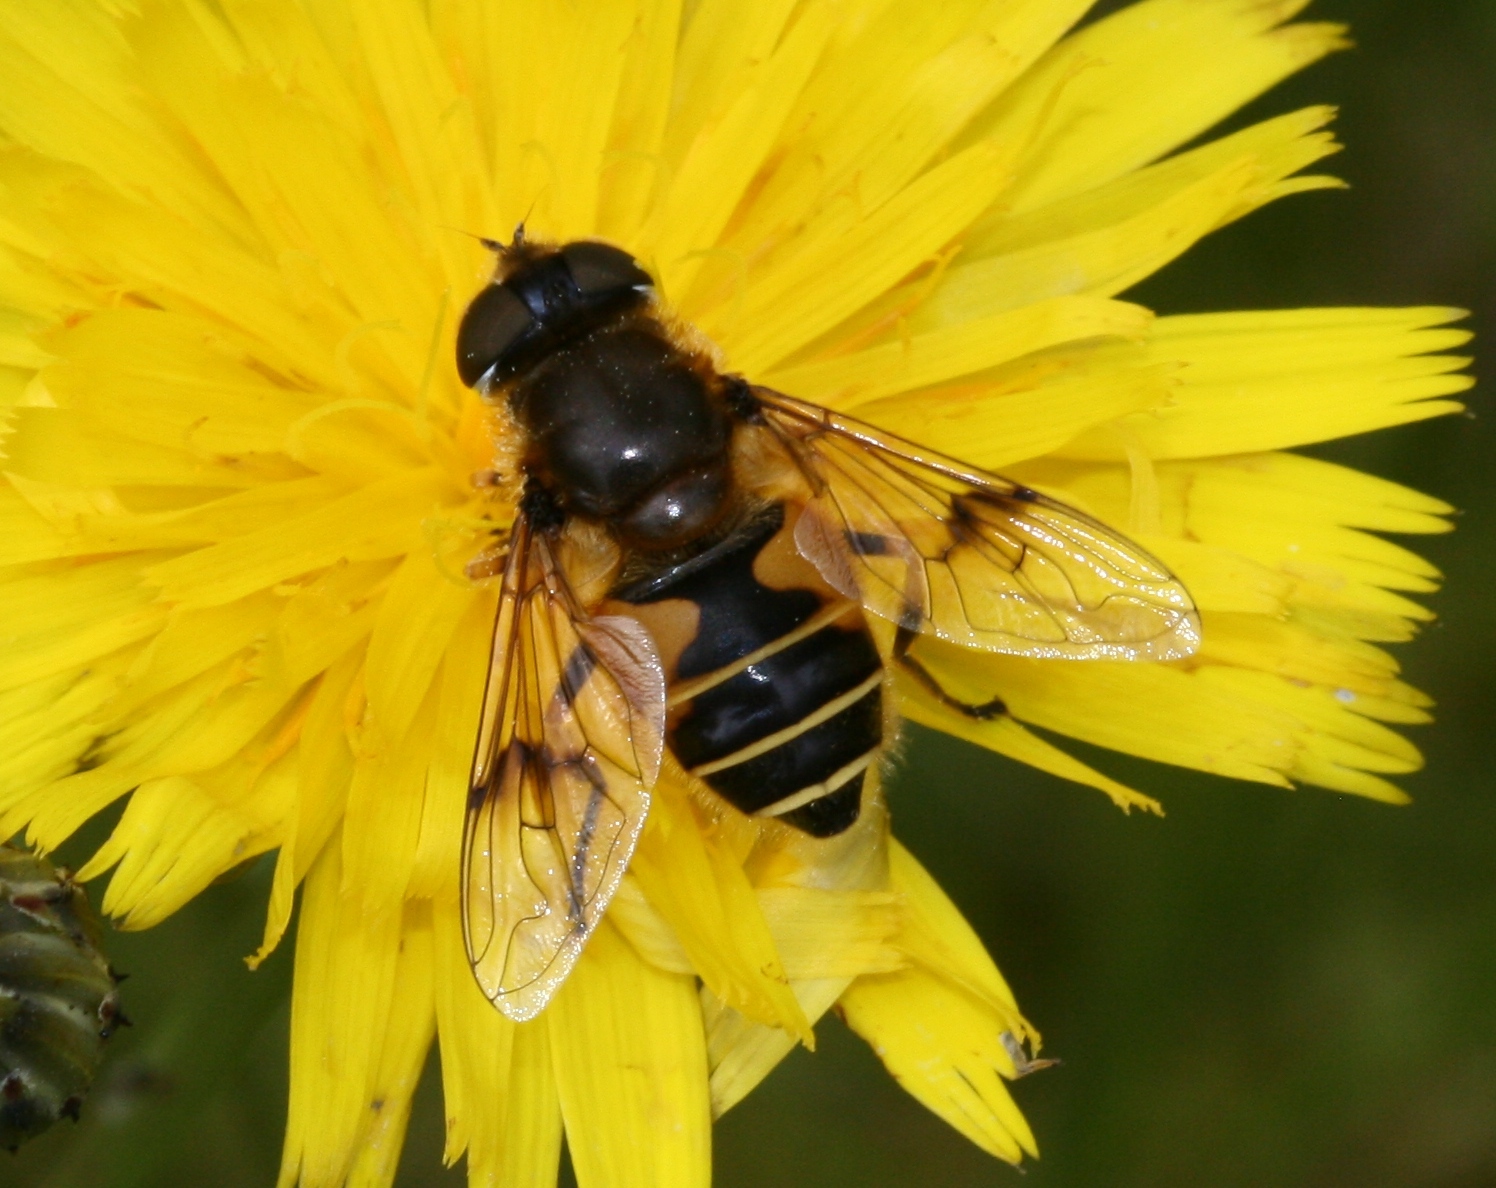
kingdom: Animalia
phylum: Arthropoda
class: Insecta
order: Diptera
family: Syrphidae
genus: Cheilosia
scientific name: Cheilosia morio
